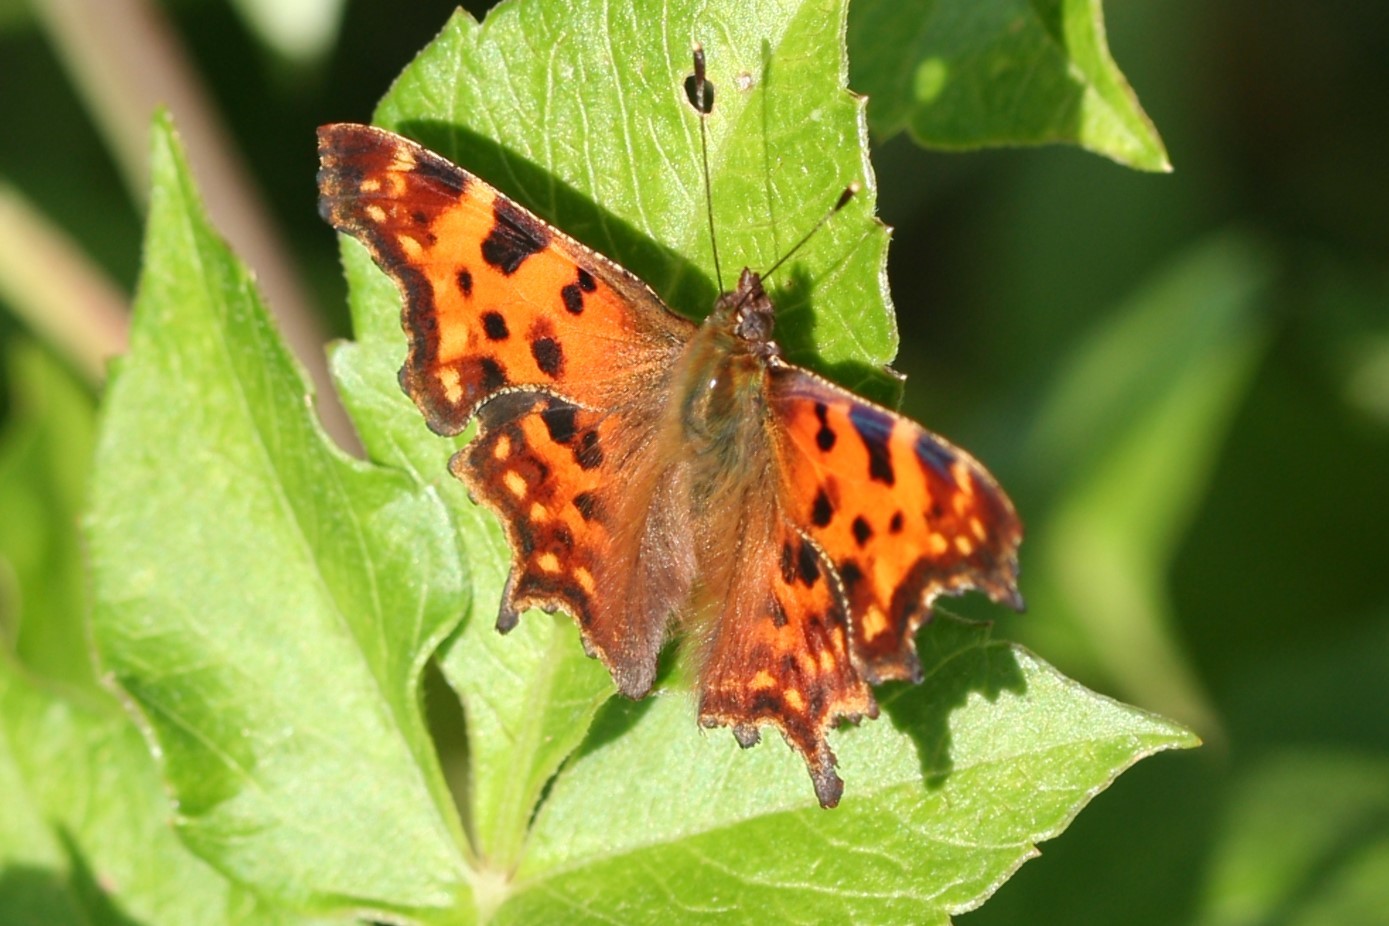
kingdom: Animalia
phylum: Arthropoda
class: Insecta
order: Lepidoptera
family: Nymphalidae
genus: Polygonia
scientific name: Polygonia c-album
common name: Comma
